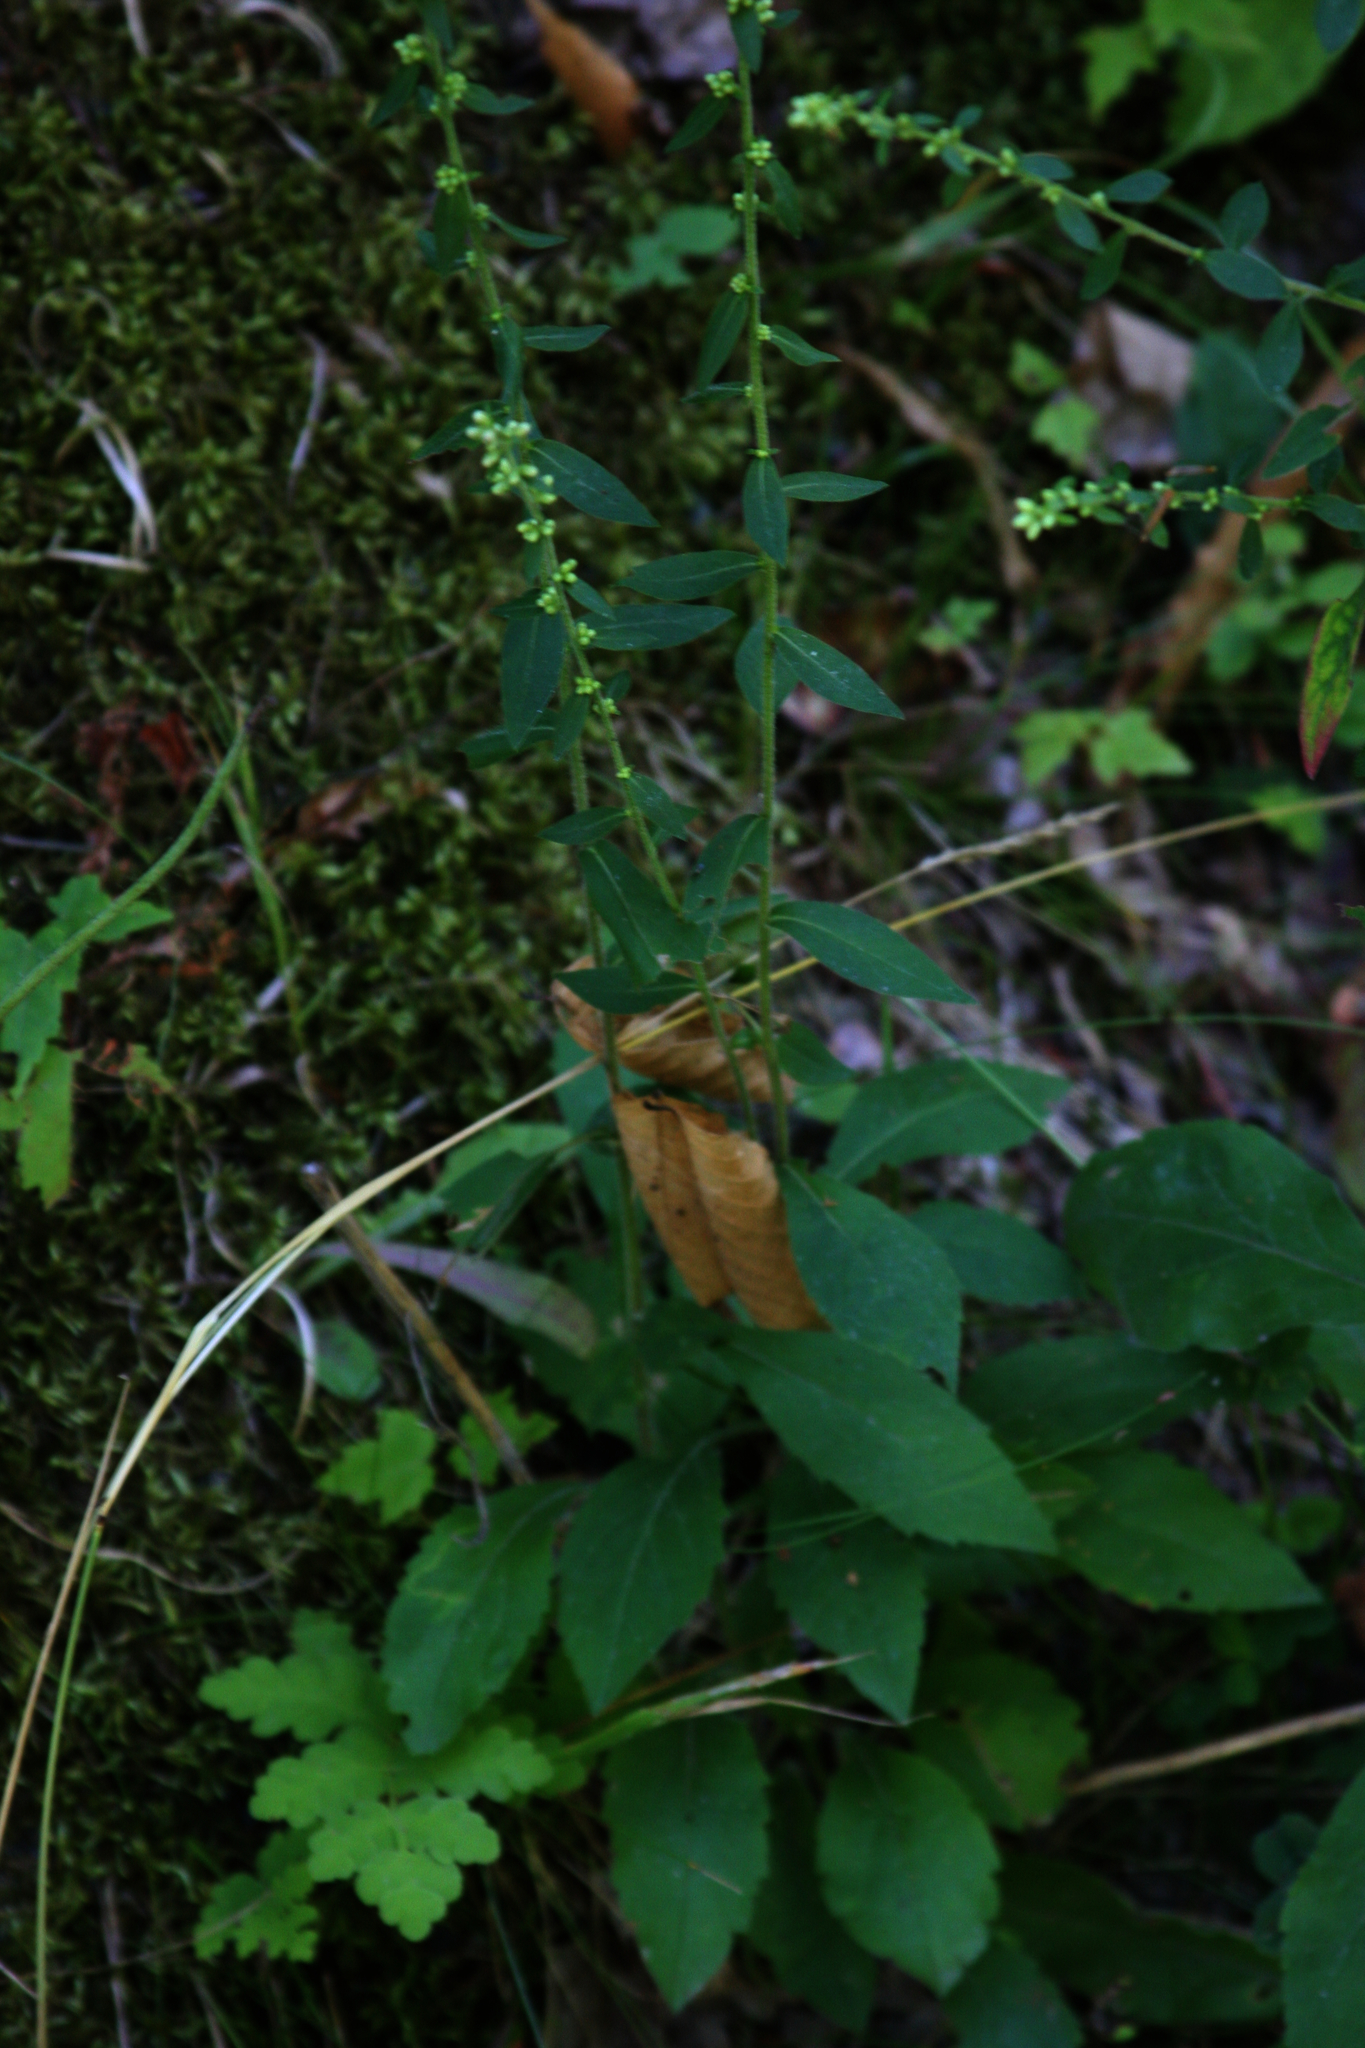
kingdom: Plantae
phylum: Tracheophyta
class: Magnoliopsida
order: Asterales
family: Asteraceae
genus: Solidago
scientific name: Solidago bicolor
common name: Silverrod
